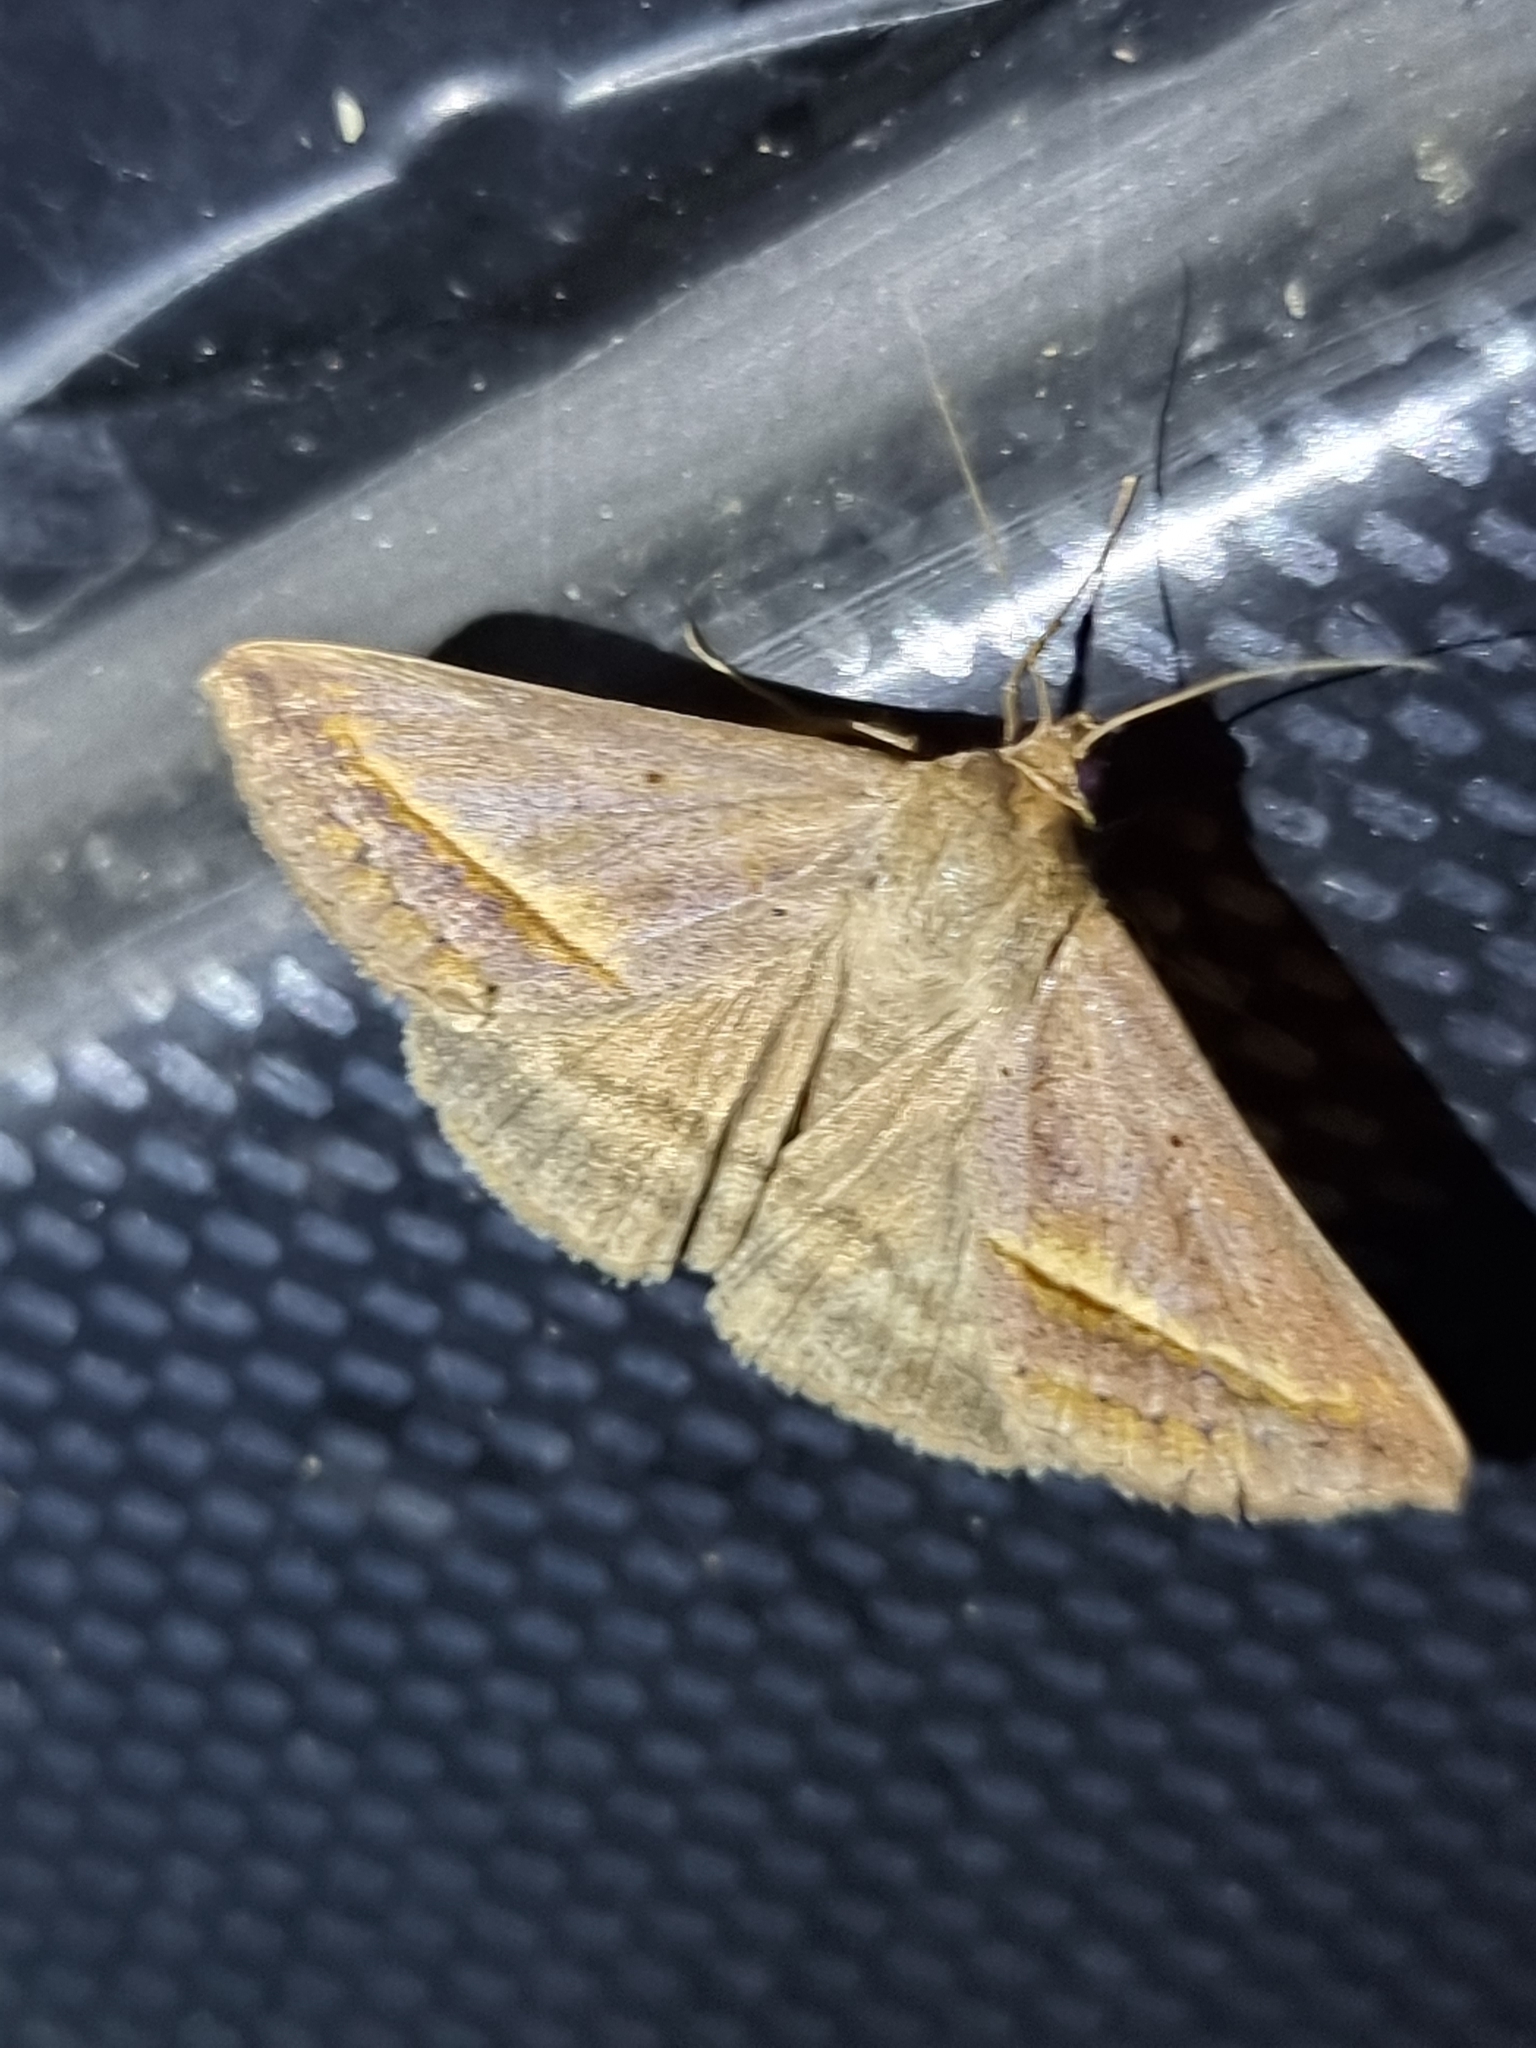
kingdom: Animalia
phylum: Arthropoda
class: Insecta
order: Lepidoptera
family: Erebidae
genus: Mocis
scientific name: Mocis frugalis
